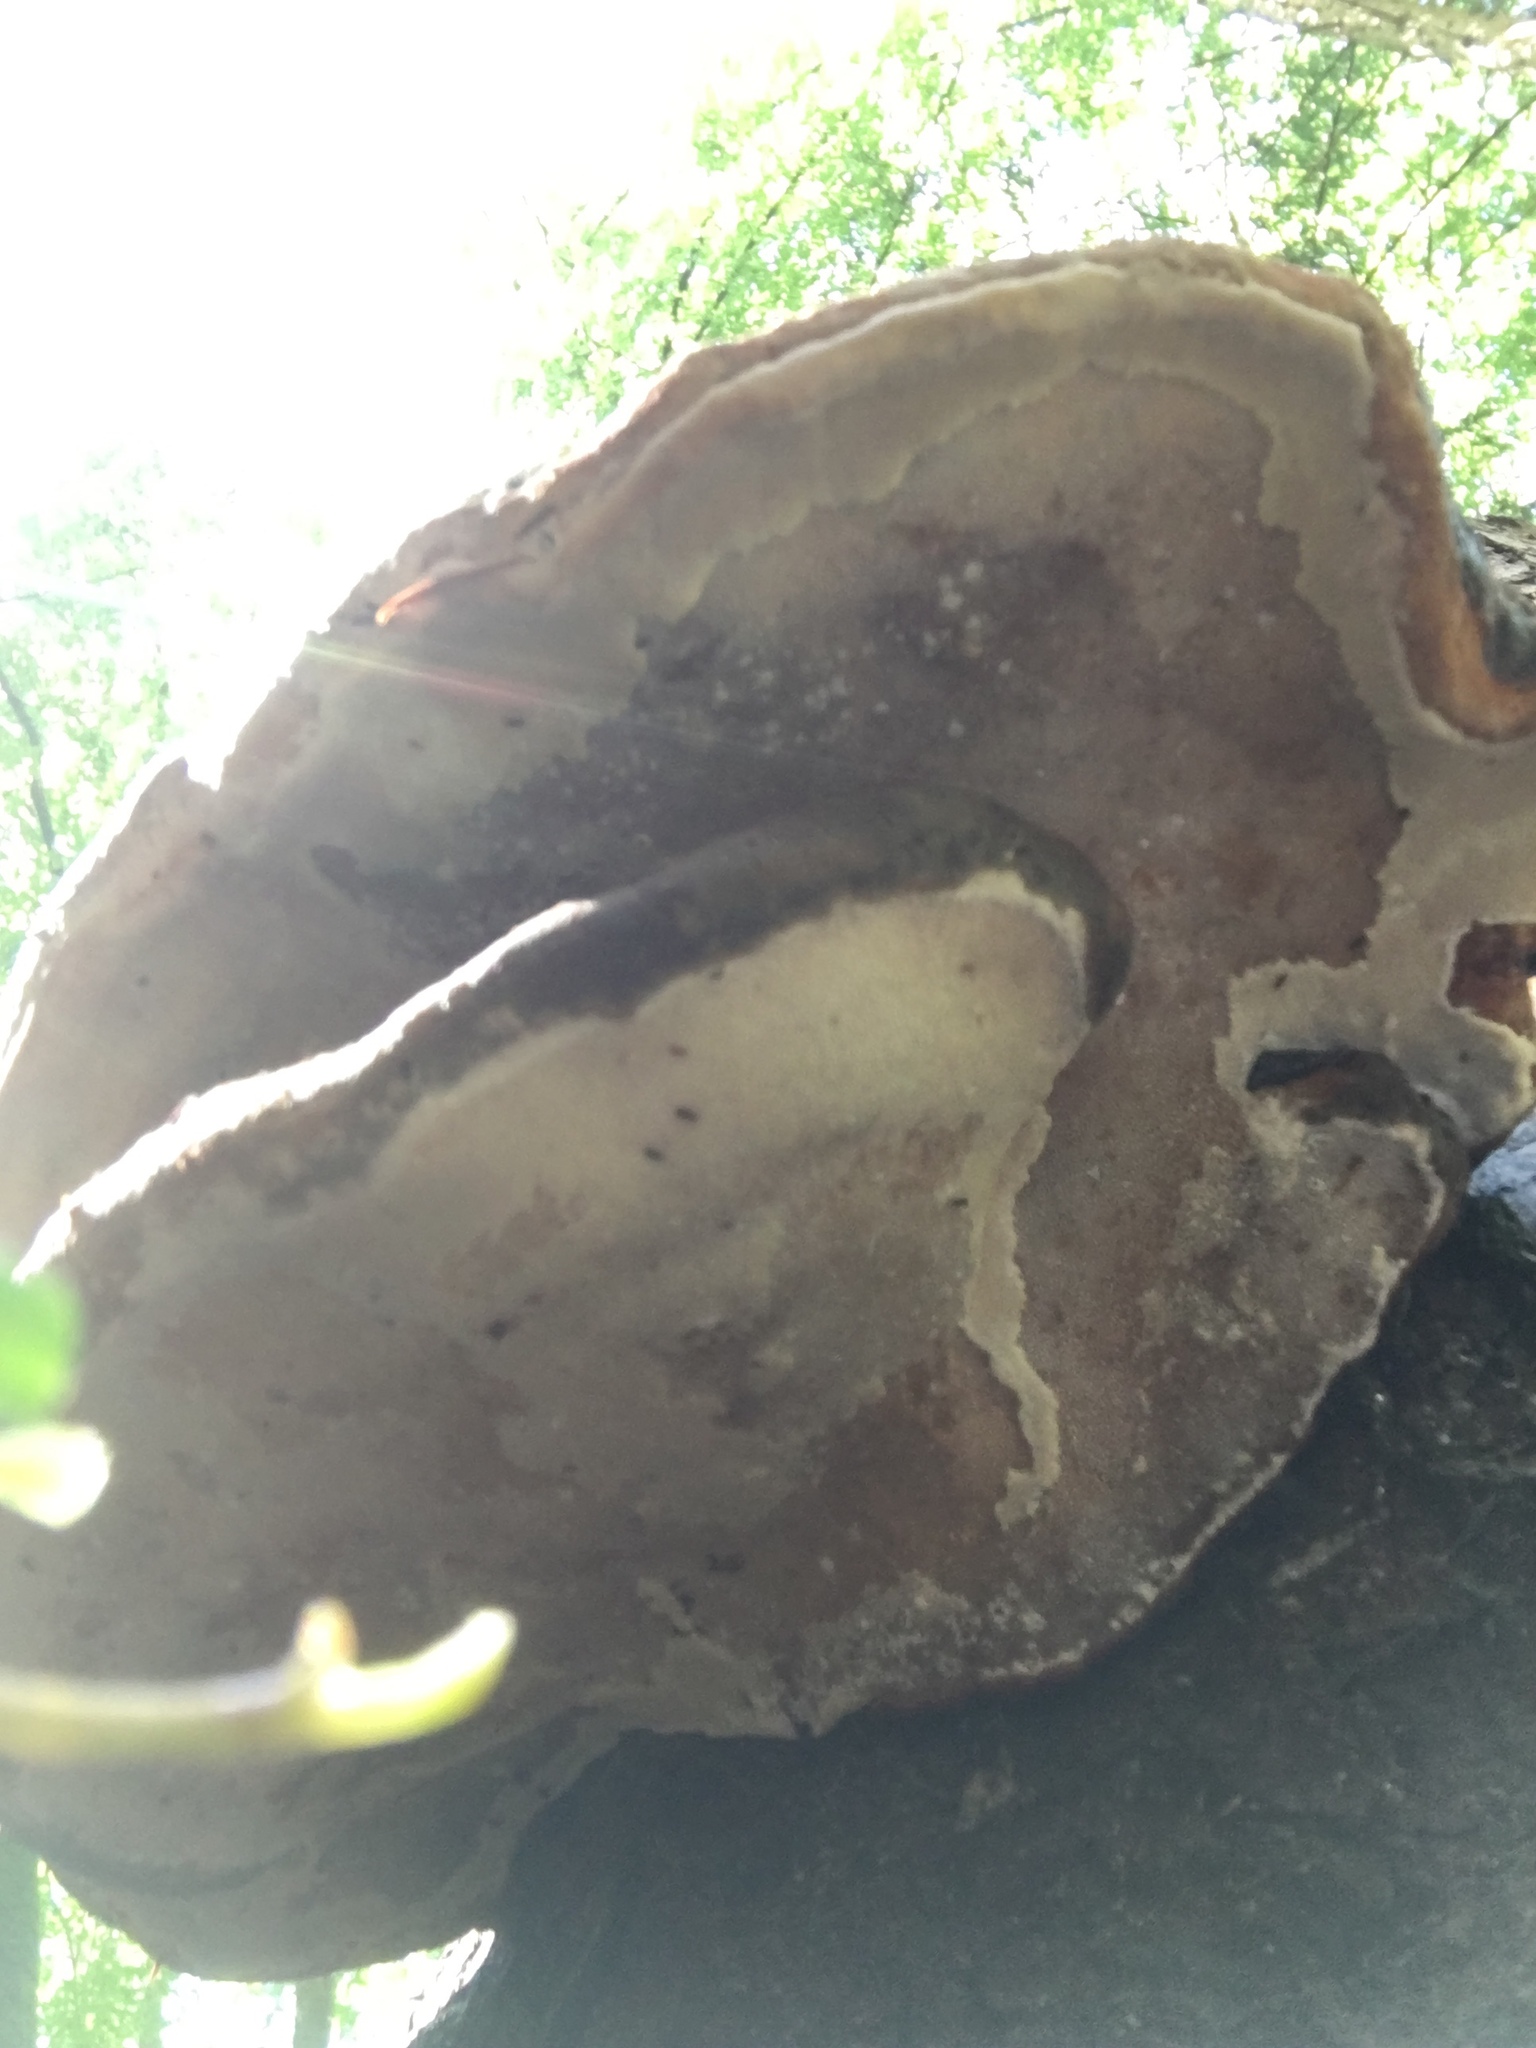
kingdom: Fungi
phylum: Basidiomycota
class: Agaricomycetes
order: Polyporales
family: Fomitopsidaceae
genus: Fomitopsis
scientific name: Fomitopsis pinicola
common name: Red-belted bracket
